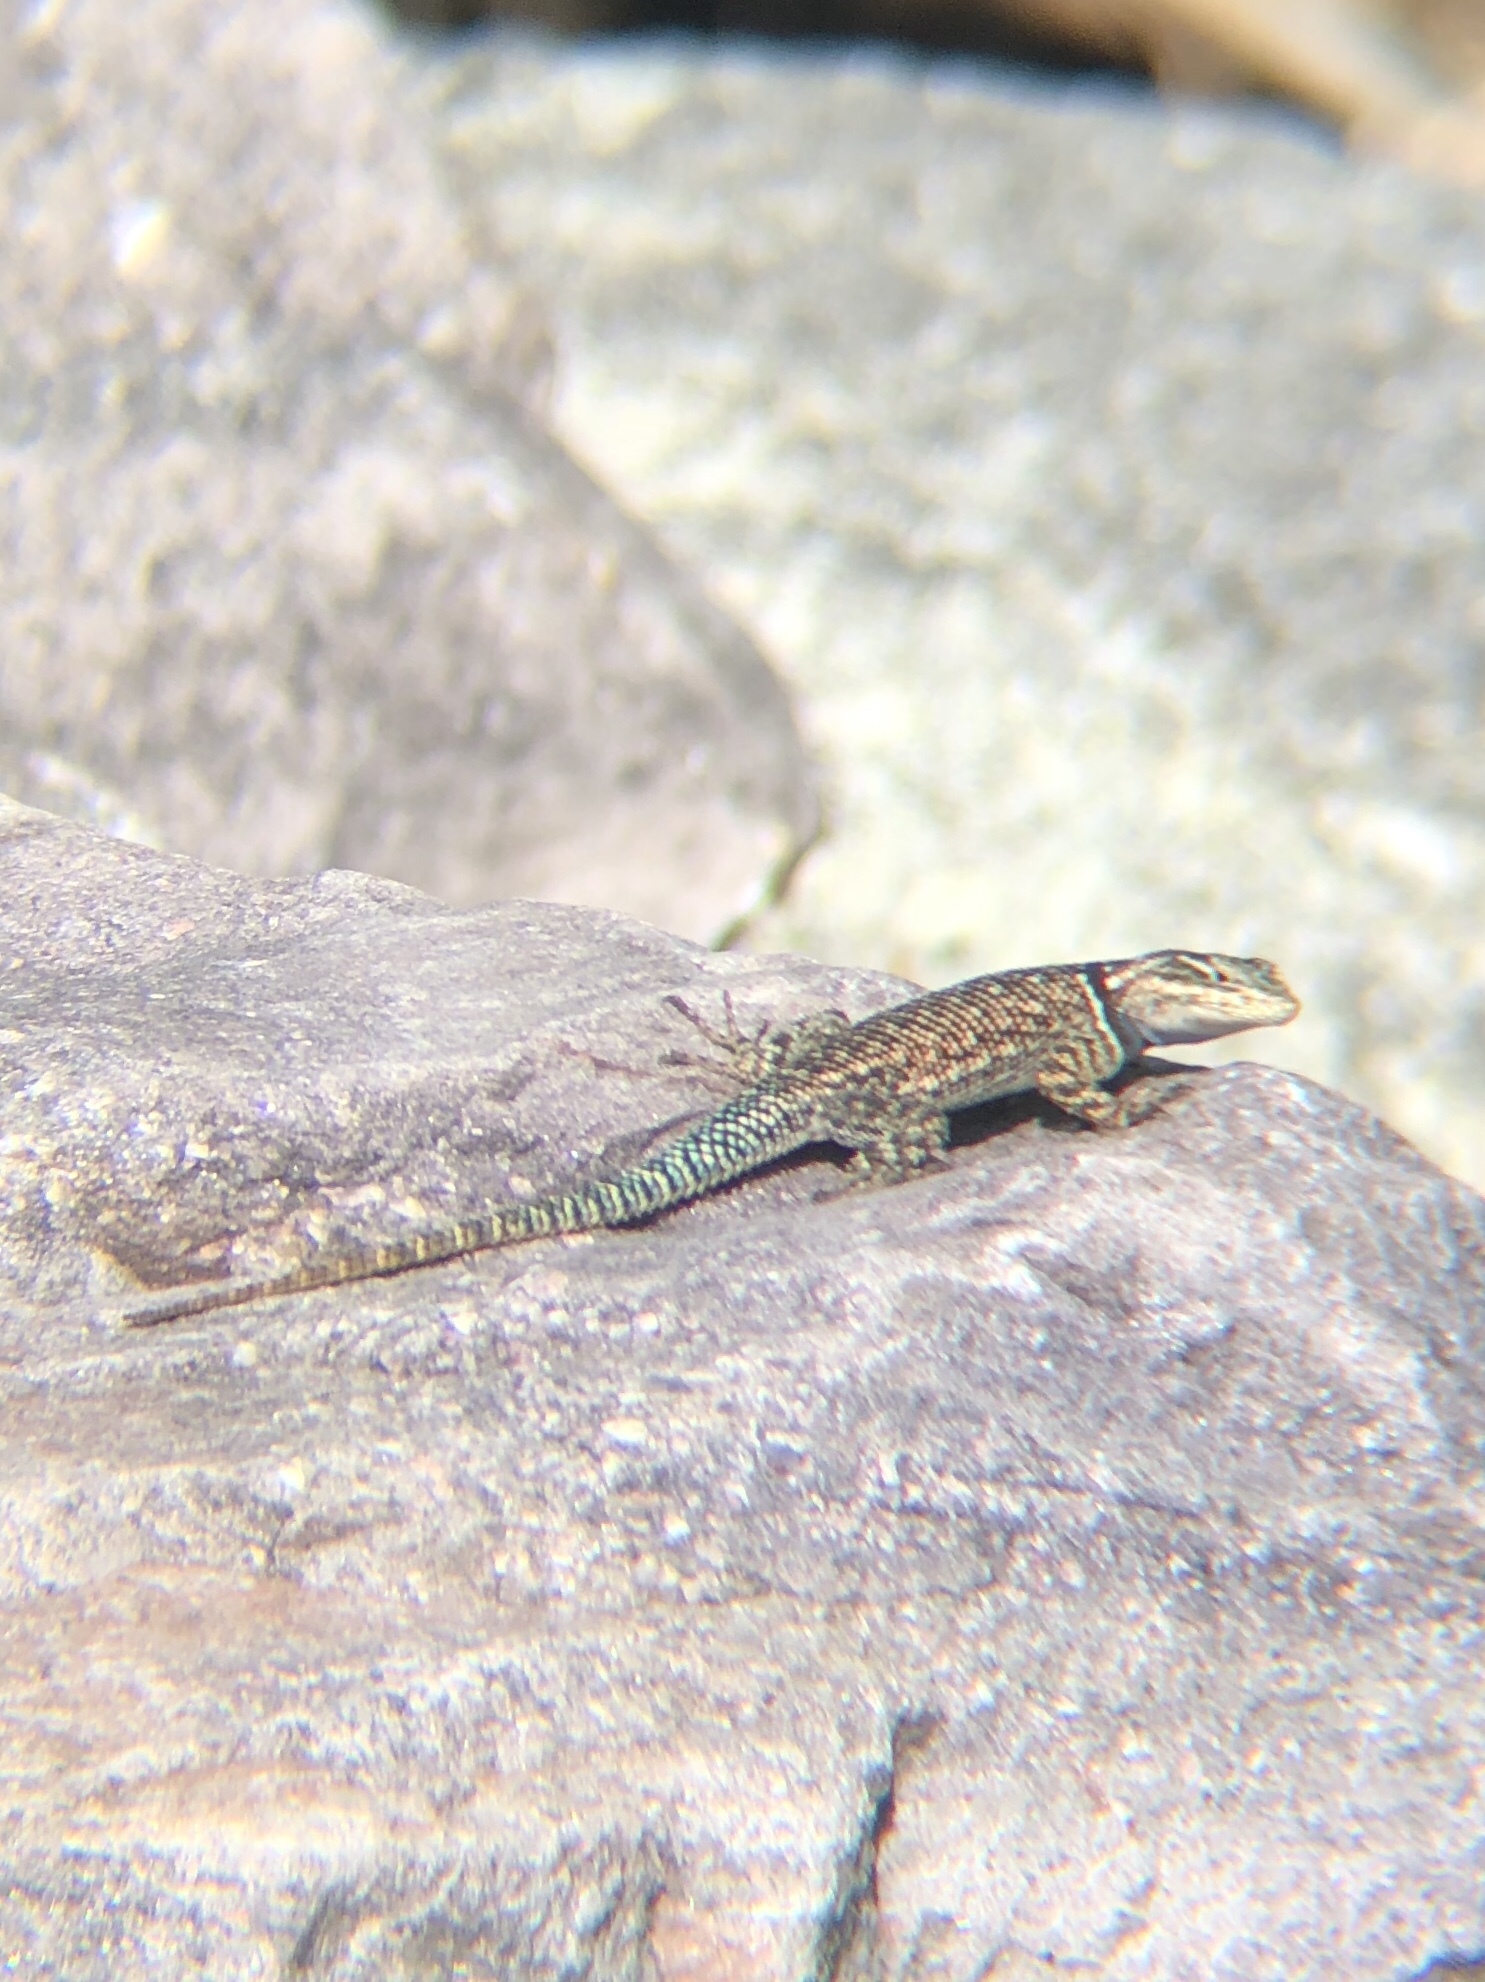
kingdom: Animalia
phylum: Chordata
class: Squamata
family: Phrynosomatidae
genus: Sceloporus
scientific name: Sceloporus jarrovii
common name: Yarrow's spiny lizard
